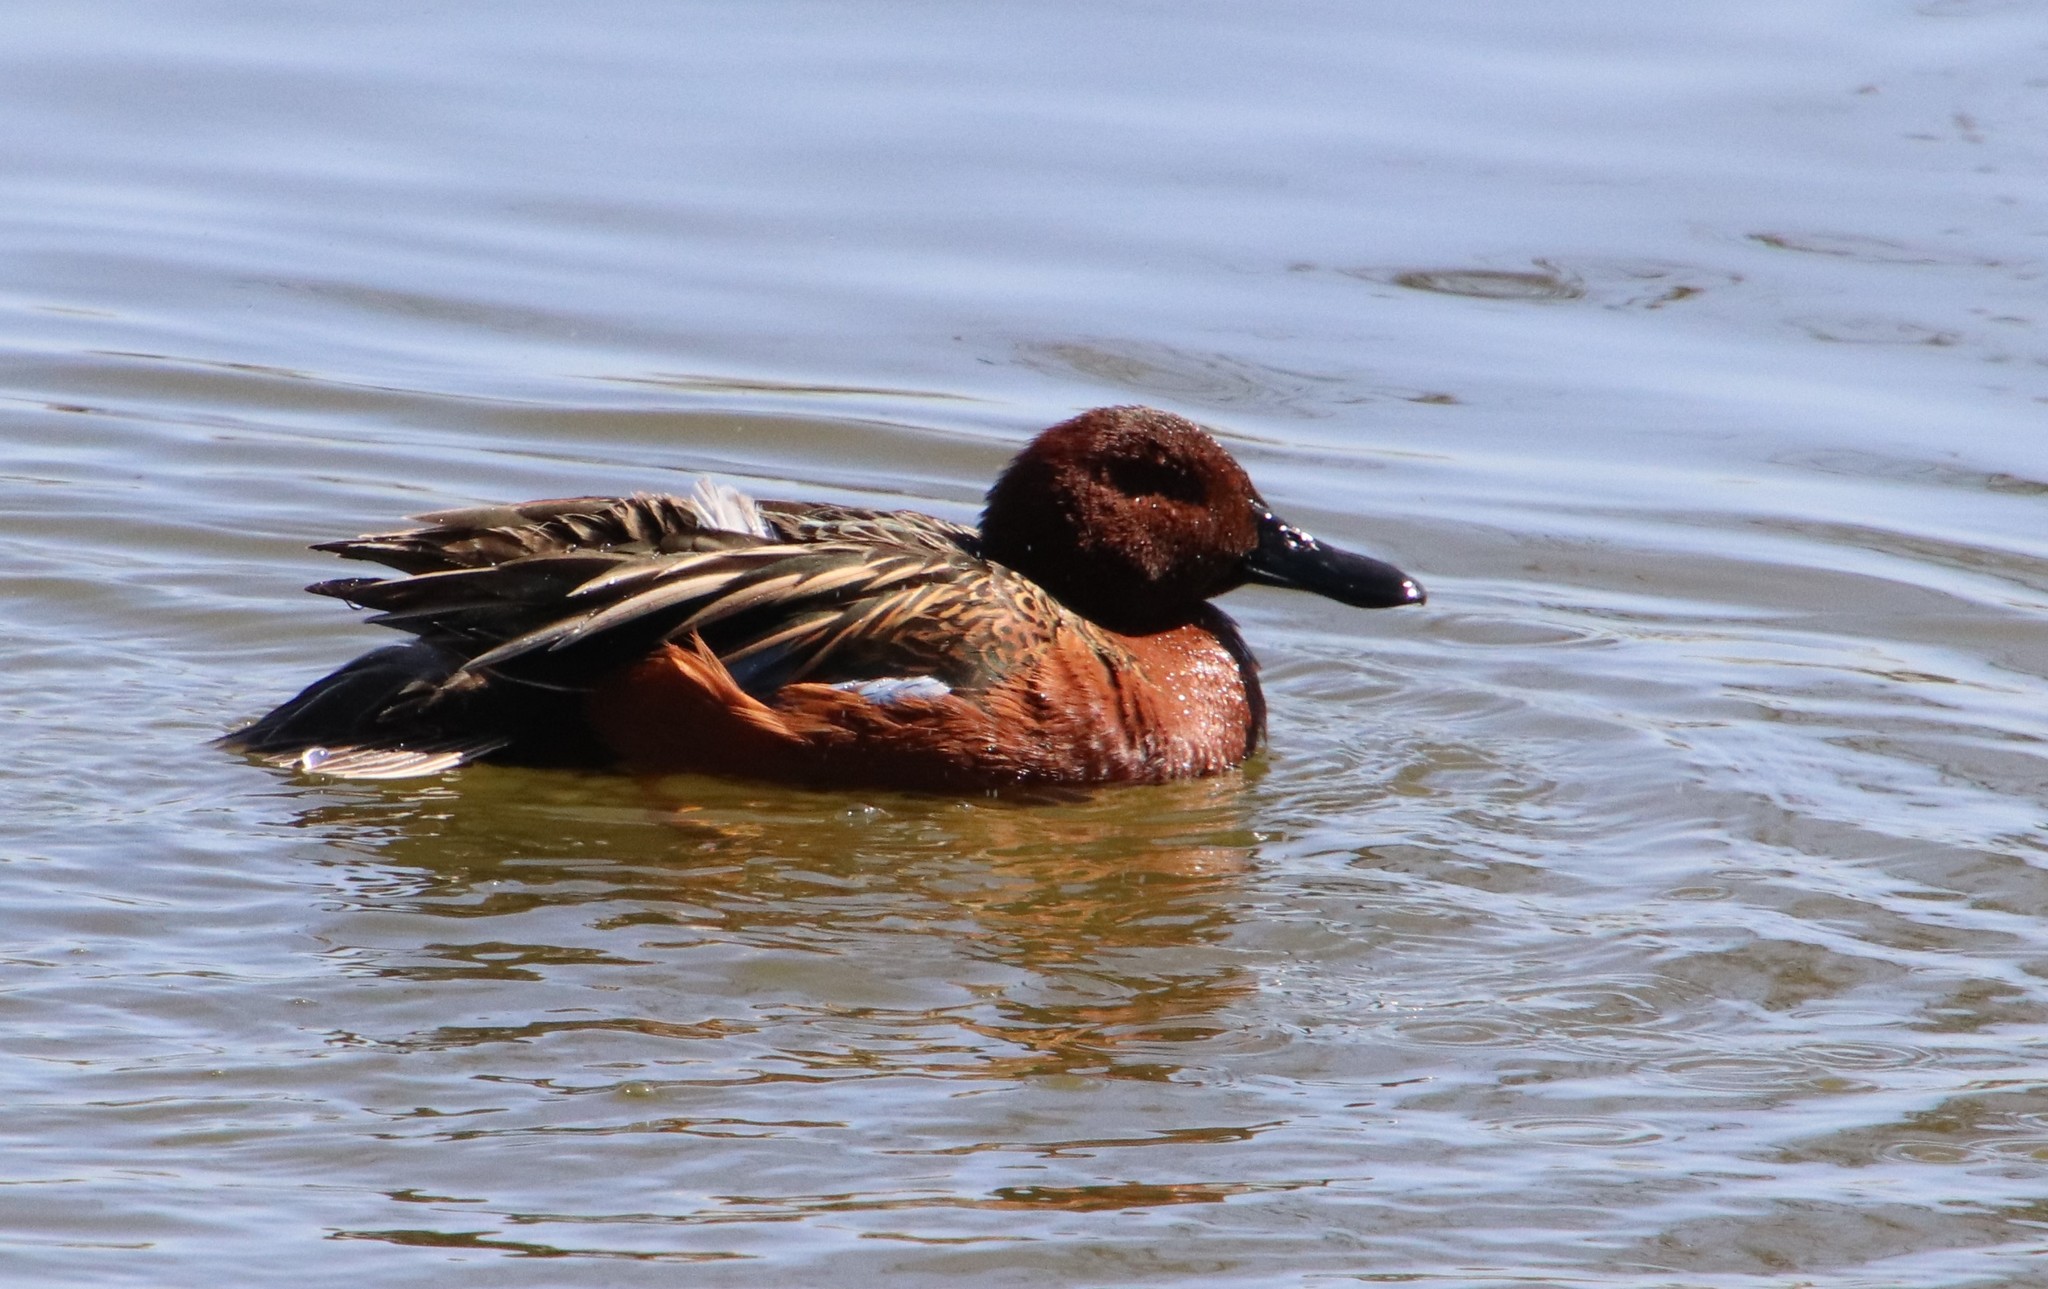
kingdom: Animalia
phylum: Chordata
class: Aves
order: Anseriformes
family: Anatidae
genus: Spatula
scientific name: Spatula cyanoptera
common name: Cinnamon teal
